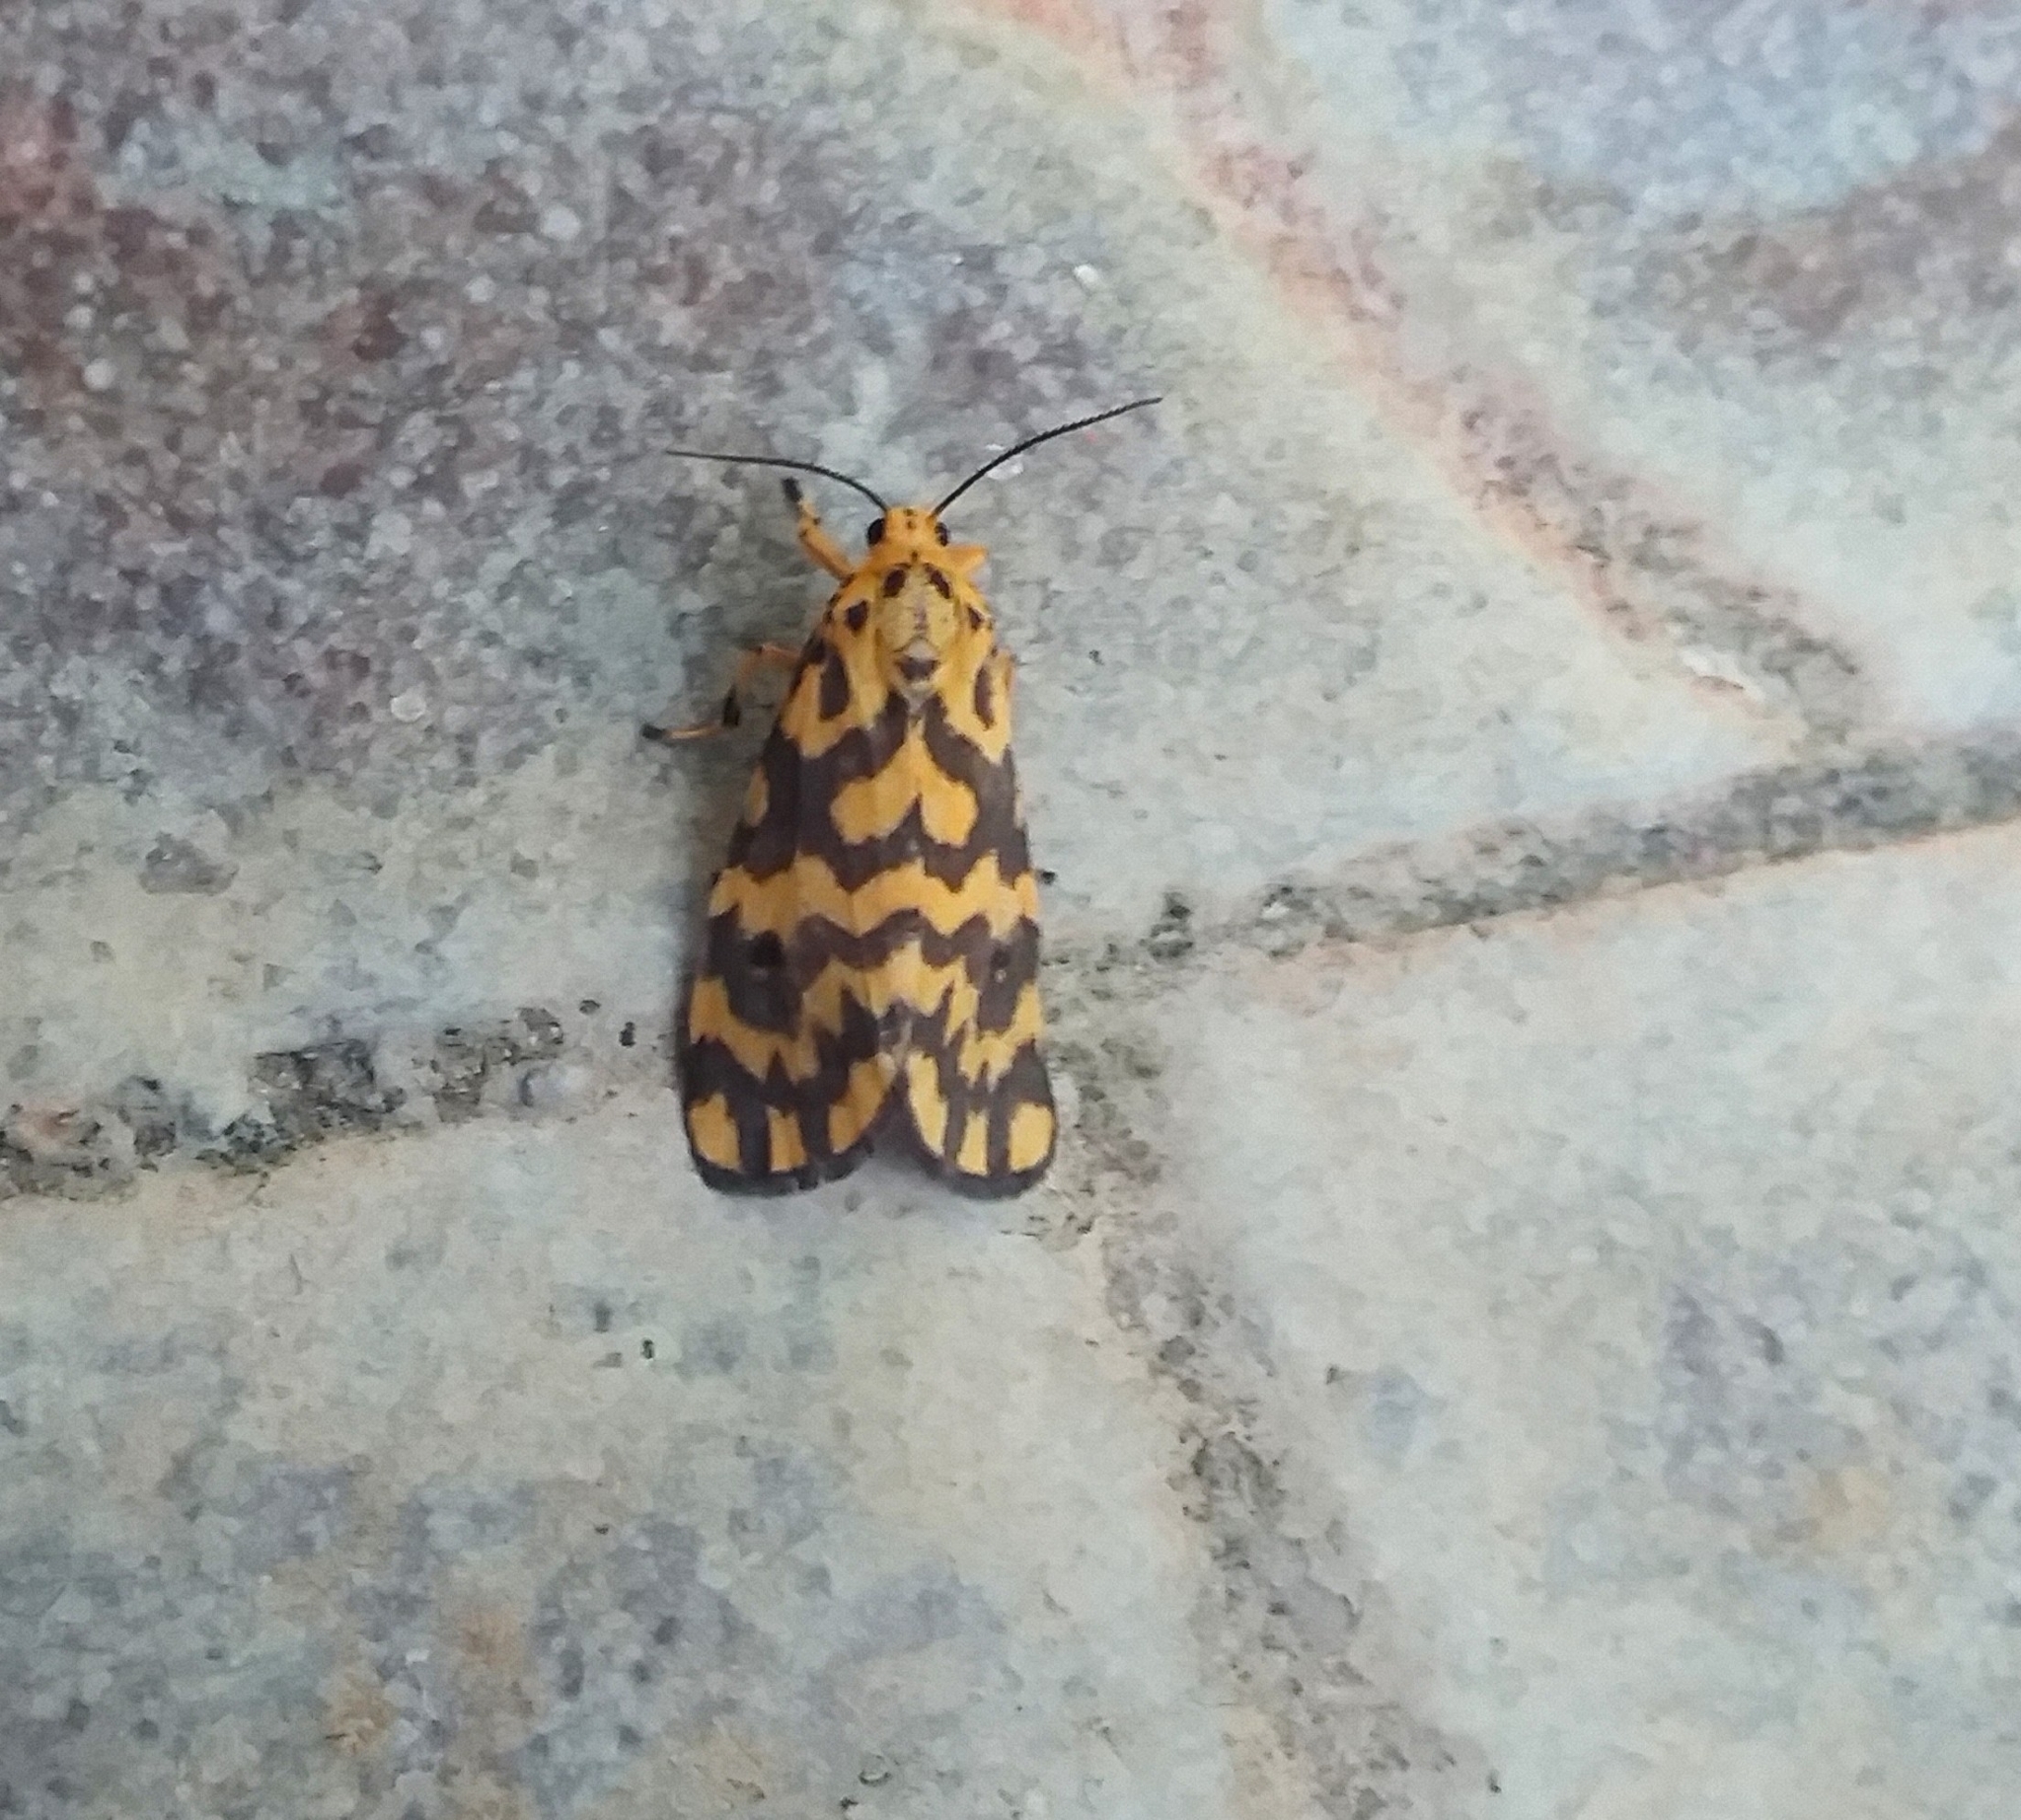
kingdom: Animalia
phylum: Arthropoda
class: Insecta
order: Lepidoptera
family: Erebidae
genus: Nepita
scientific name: Nepita conferta
